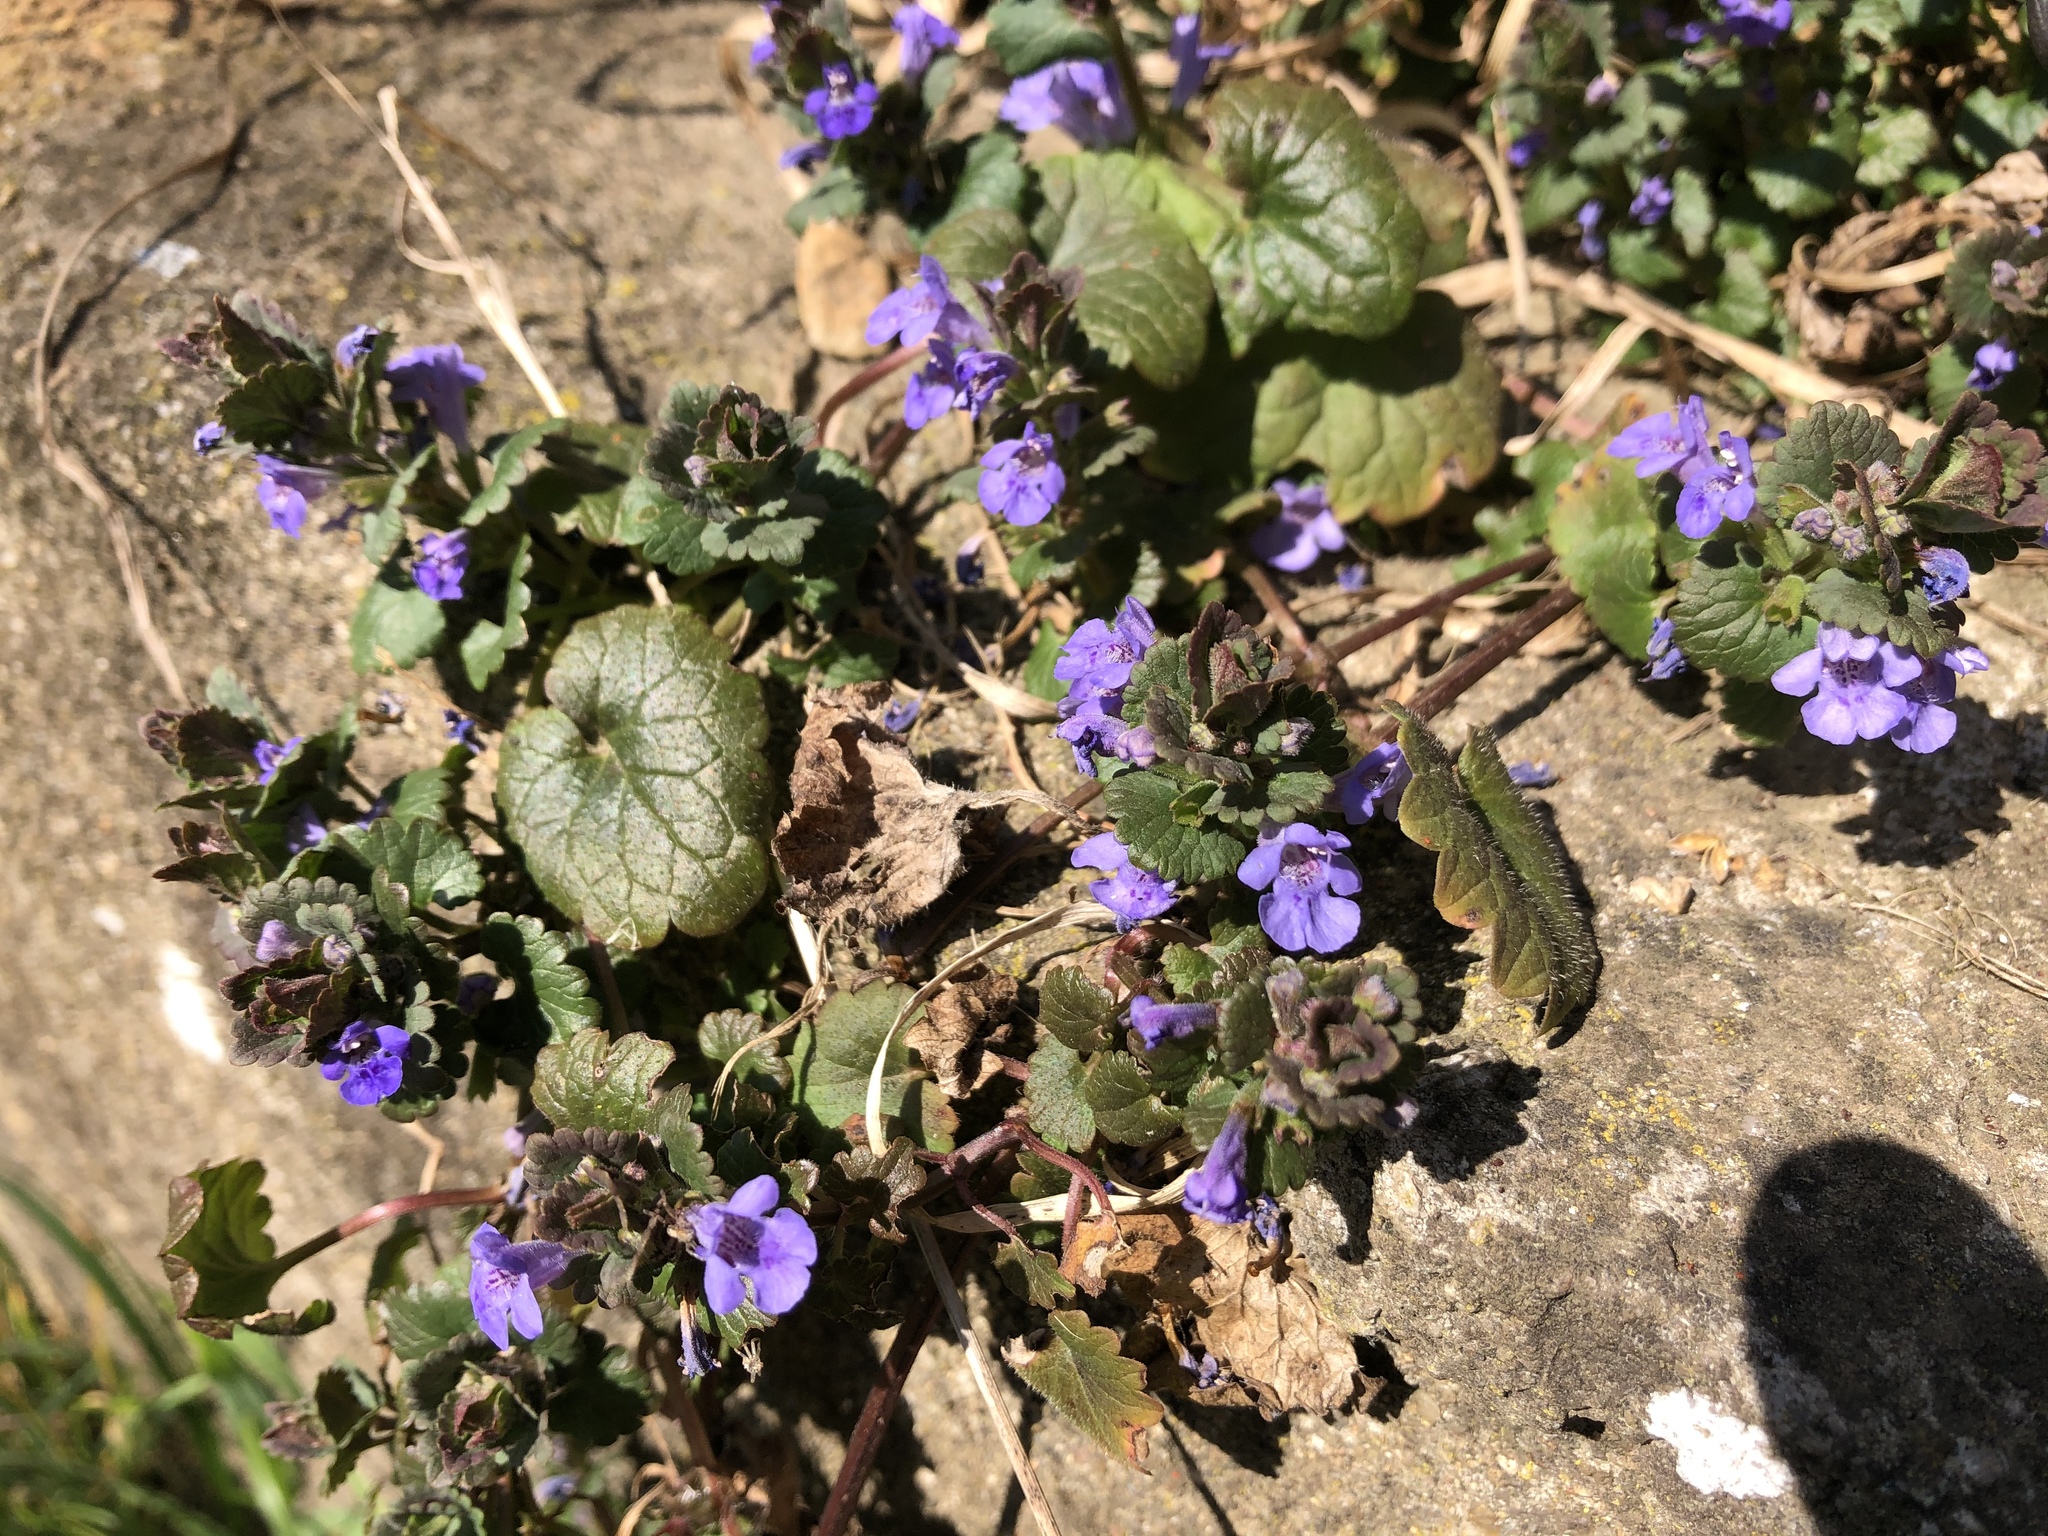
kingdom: Plantae
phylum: Tracheophyta
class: Magnoliopsida
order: Lamiales
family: Lamiaceae
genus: Glechoma
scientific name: Glechoma hederacea
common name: Ground ivy
